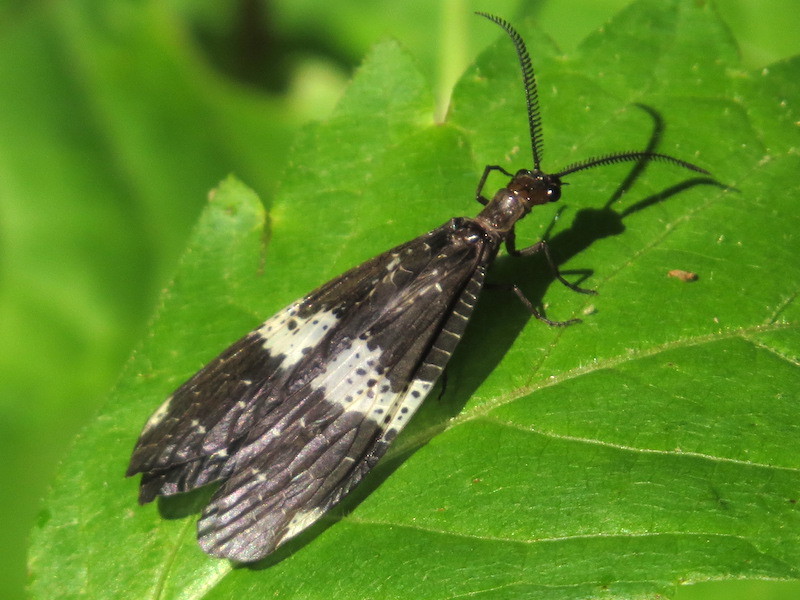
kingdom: Animalia
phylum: Arthropoda
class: Insecta
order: Megaloptera
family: Corydalidae
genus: Nigronia
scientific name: Nigronia fasciata
